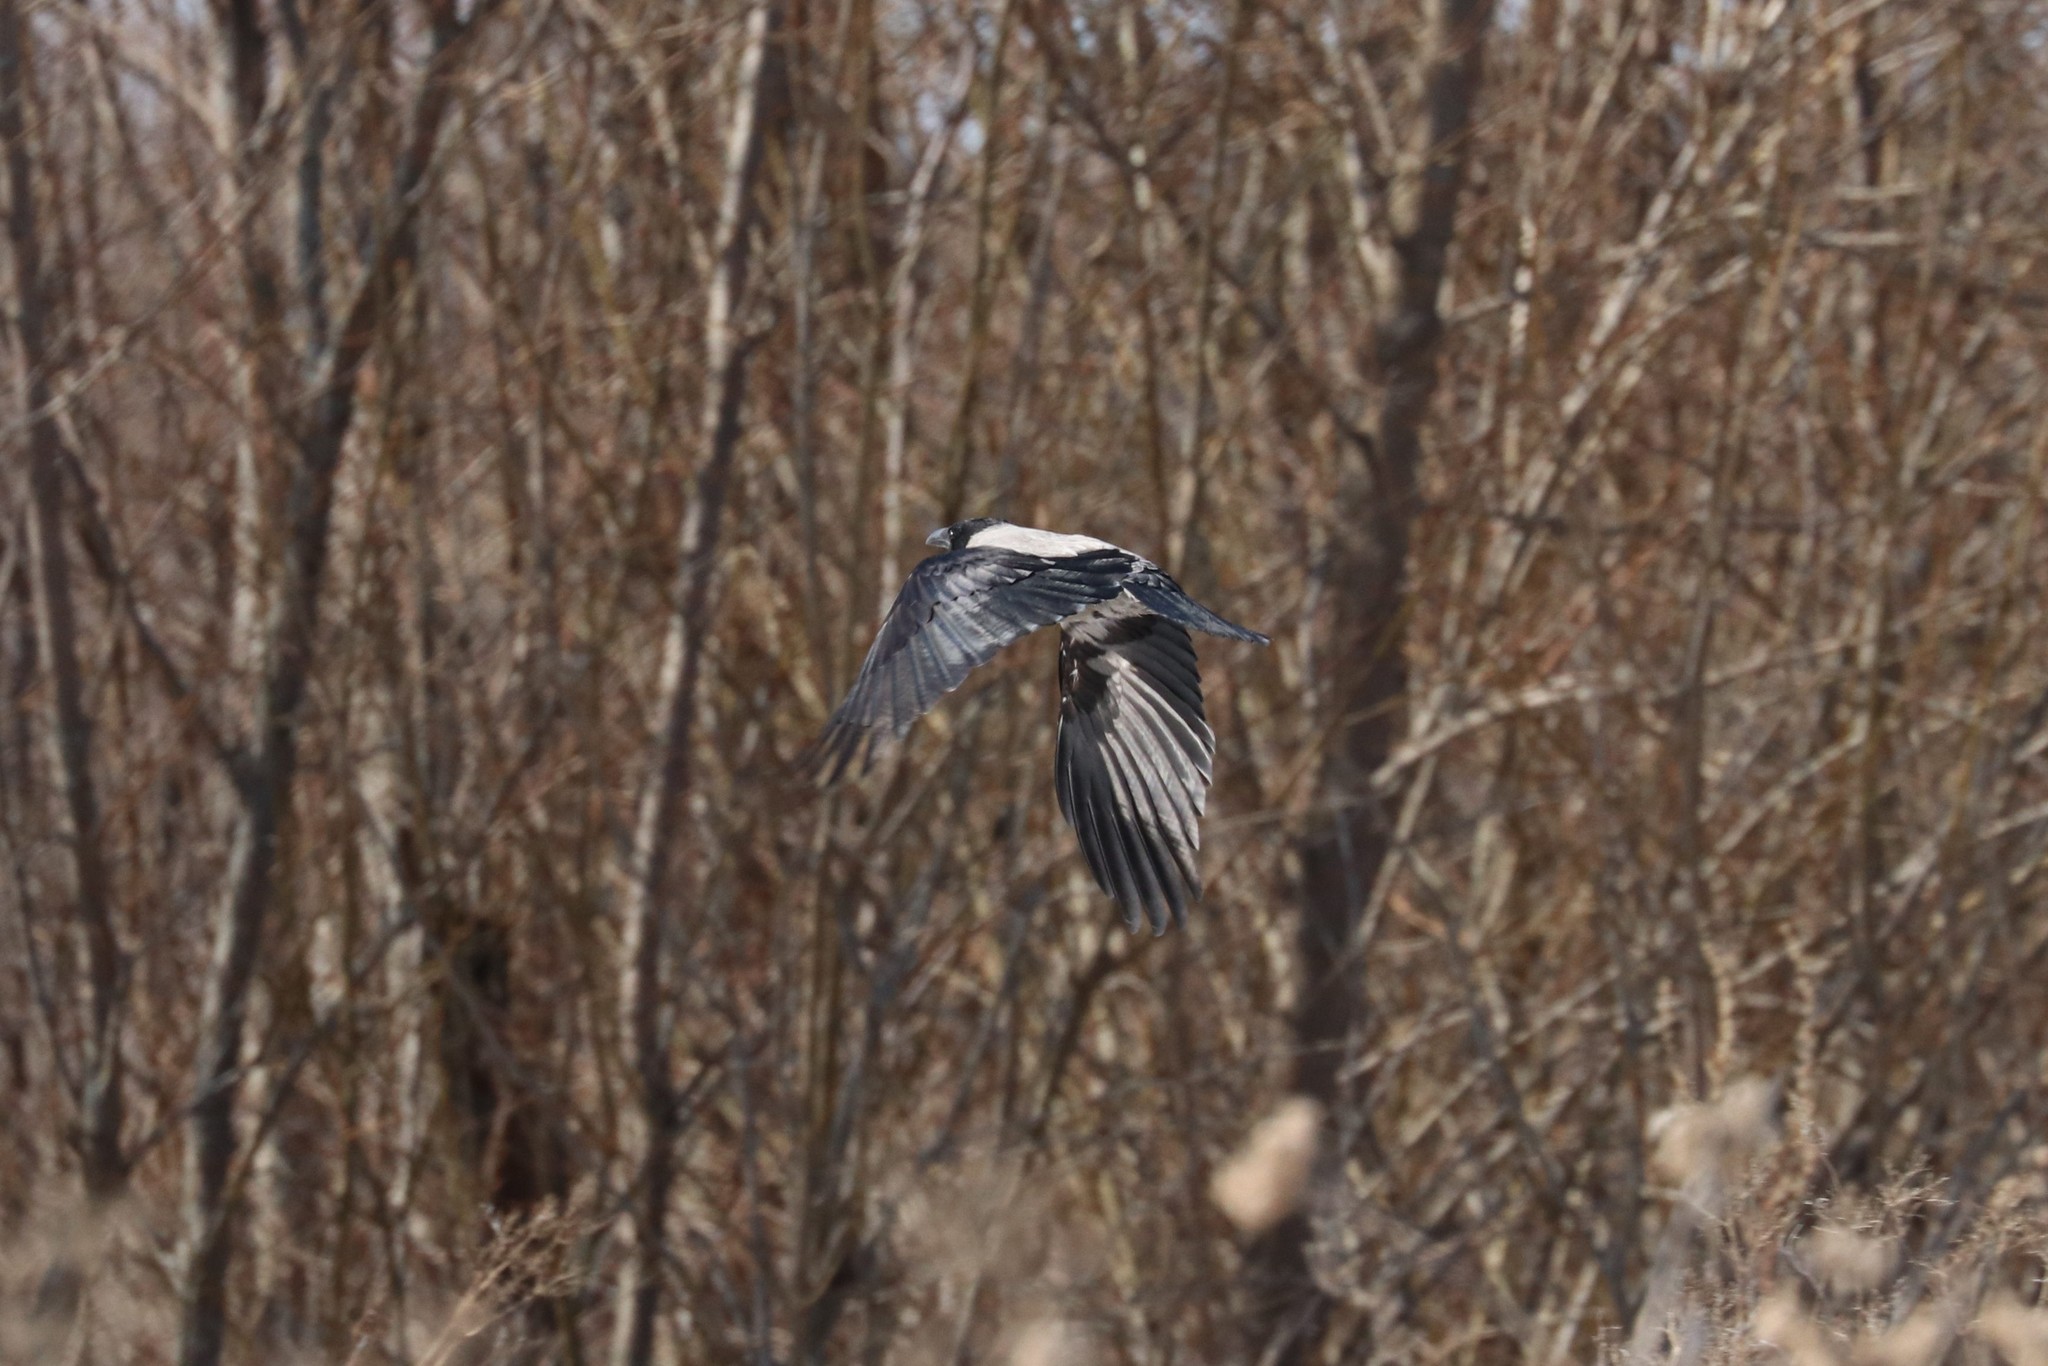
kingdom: Animalia
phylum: Chordata
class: Aves
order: Passeriformes
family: Corvidae
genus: Corvus
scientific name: Corvus cornix
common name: Hooded crow
